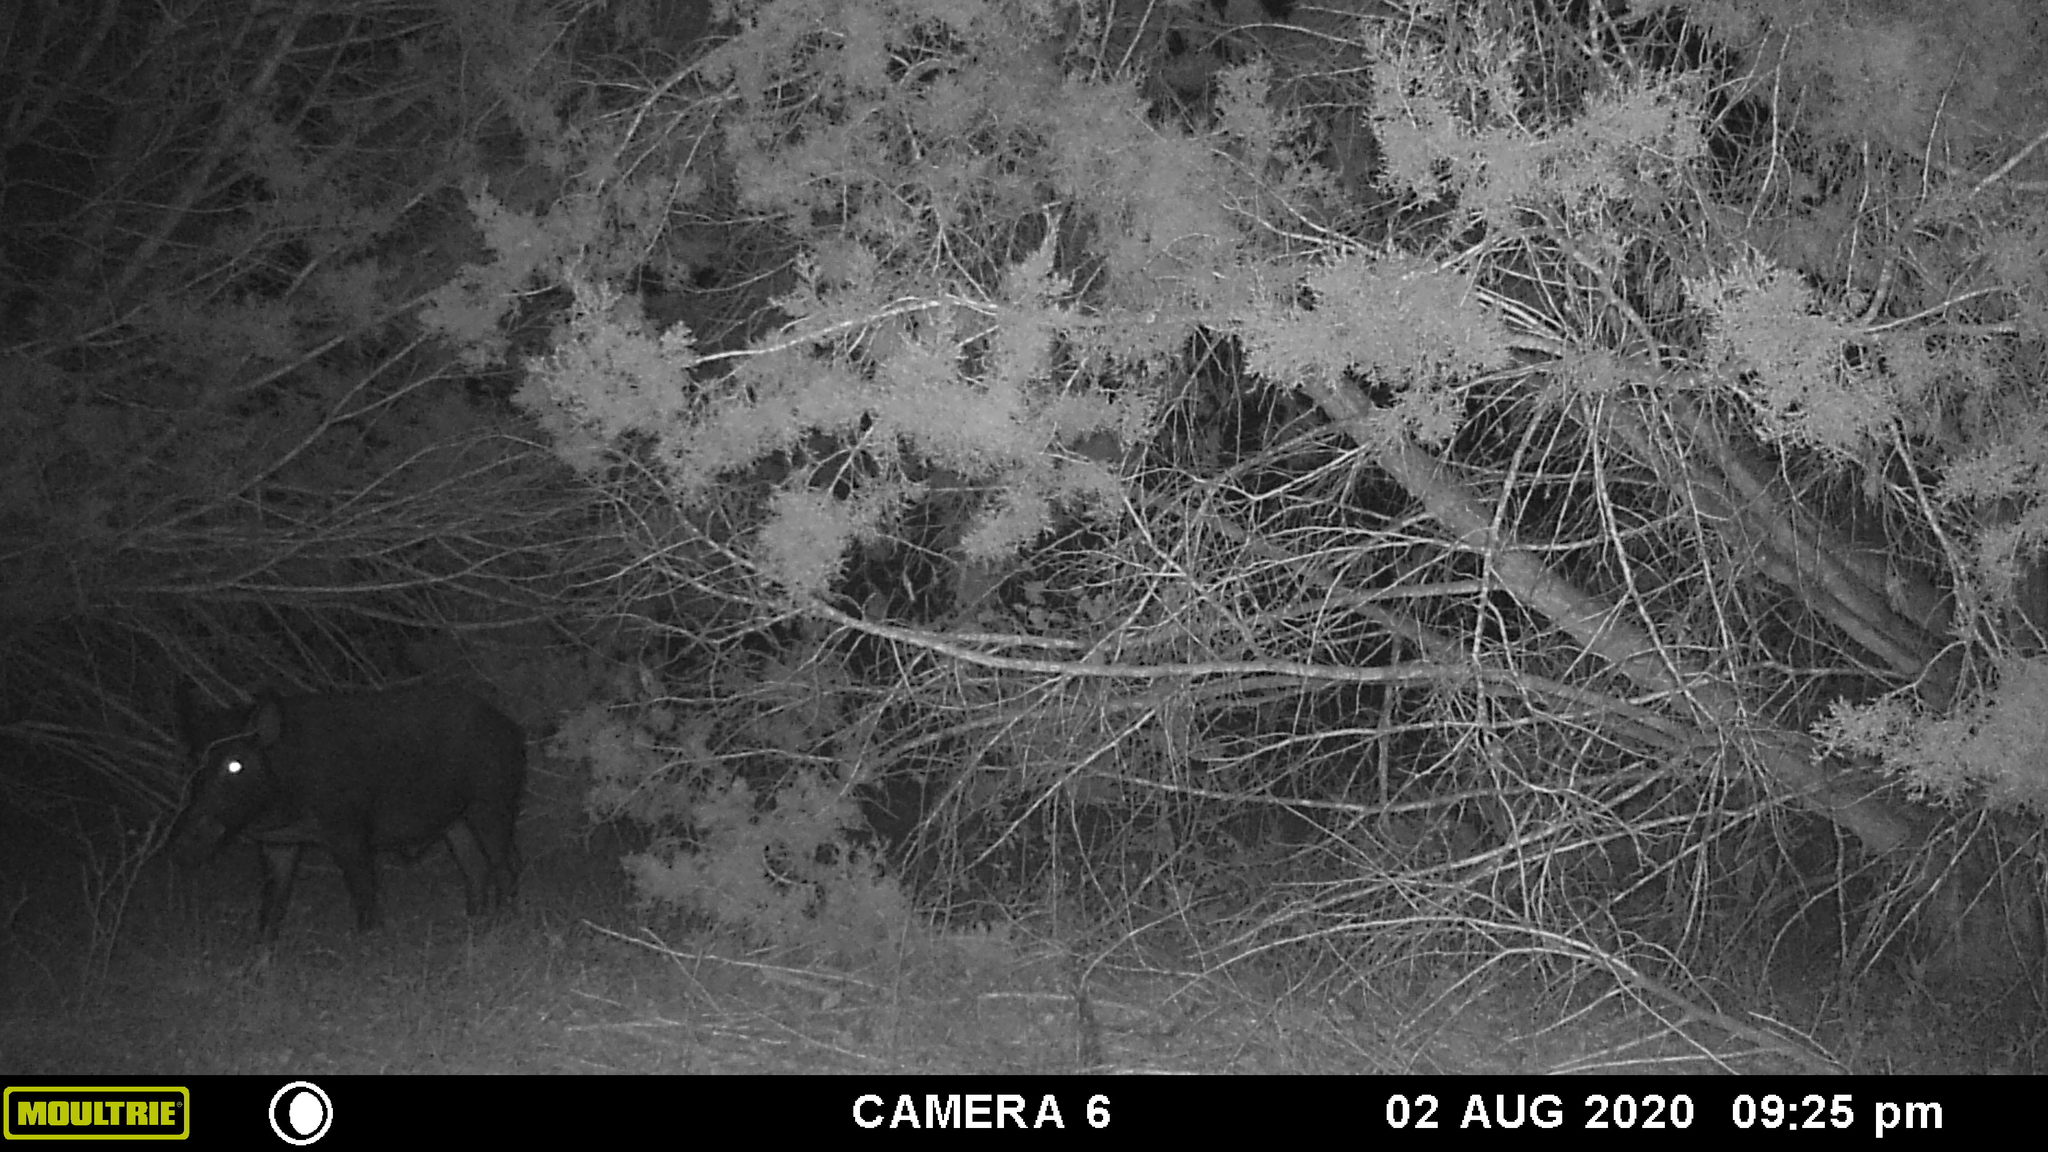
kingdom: Animalia
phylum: Chordata
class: Mammalia
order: Artiodactyla
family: Suidae
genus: Sus
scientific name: Sus scrofa
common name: Wild boar
